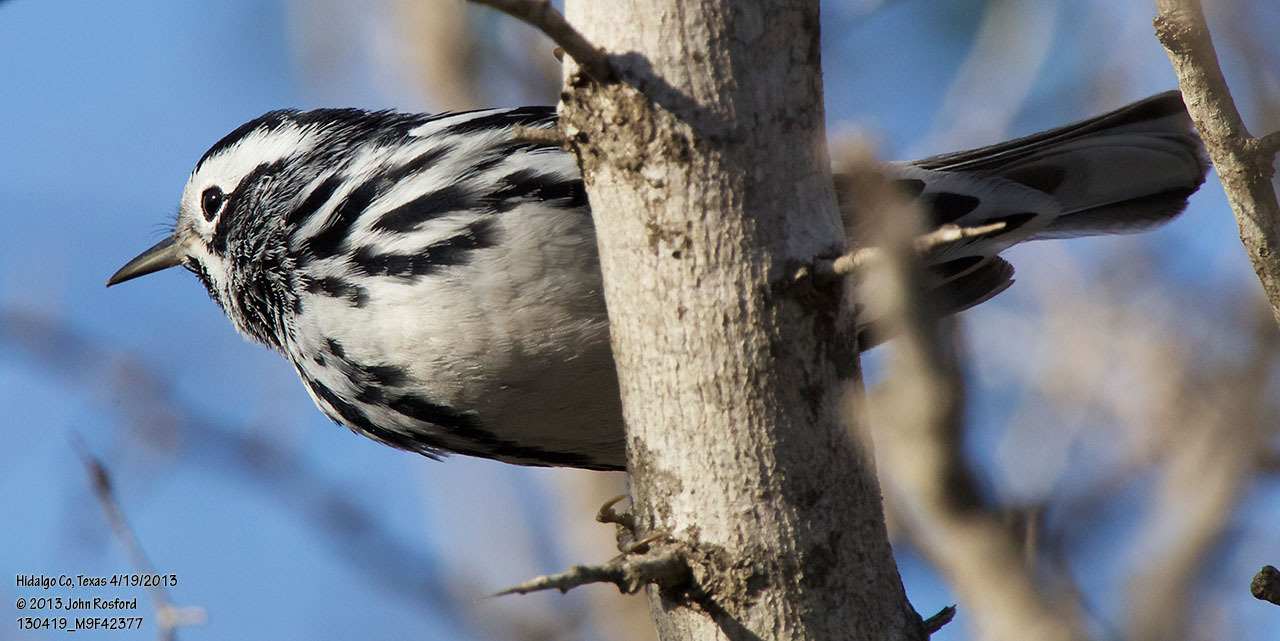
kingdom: Animalia
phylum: Chordata
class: Aves
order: Passeriformes
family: Parulidae
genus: Mniotilta
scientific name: Mniotilta varia
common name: Black-and-white warbler
